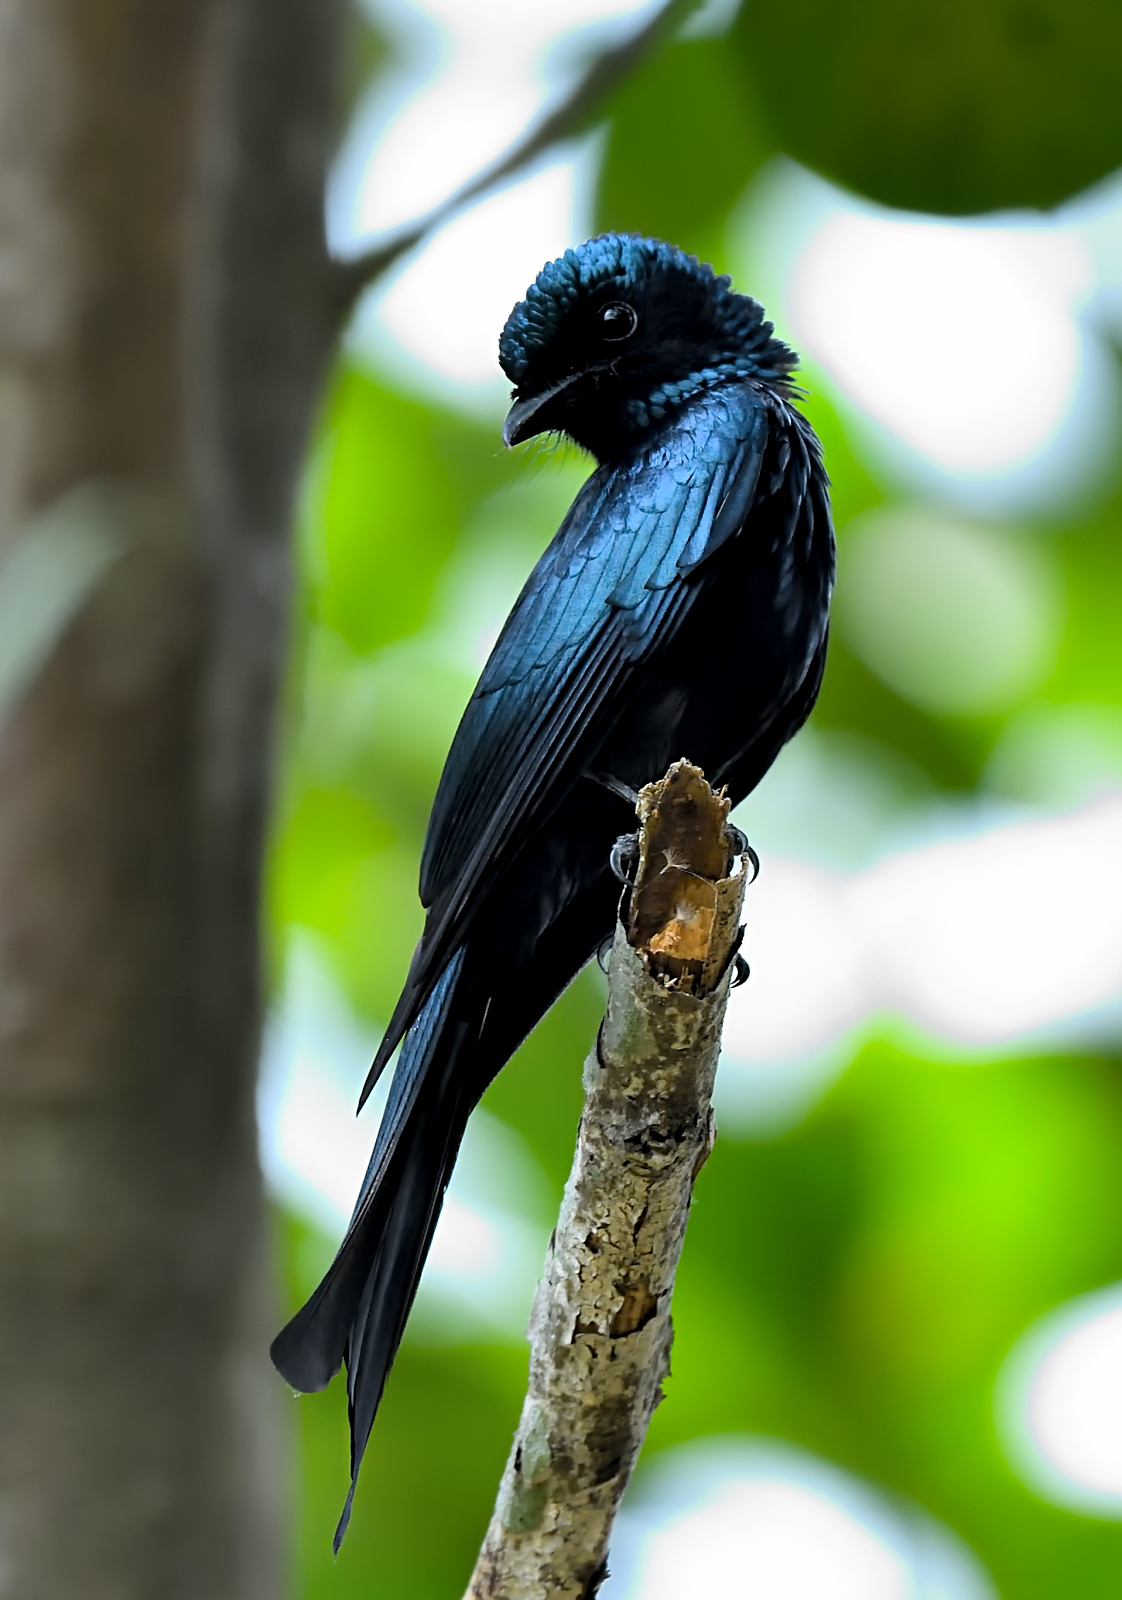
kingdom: Animalia
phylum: Chordata
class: Aves
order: Passeriformes
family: Dicruridae
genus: Dicrurus
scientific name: Dicrurus aeneus
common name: Bronzed drongo
